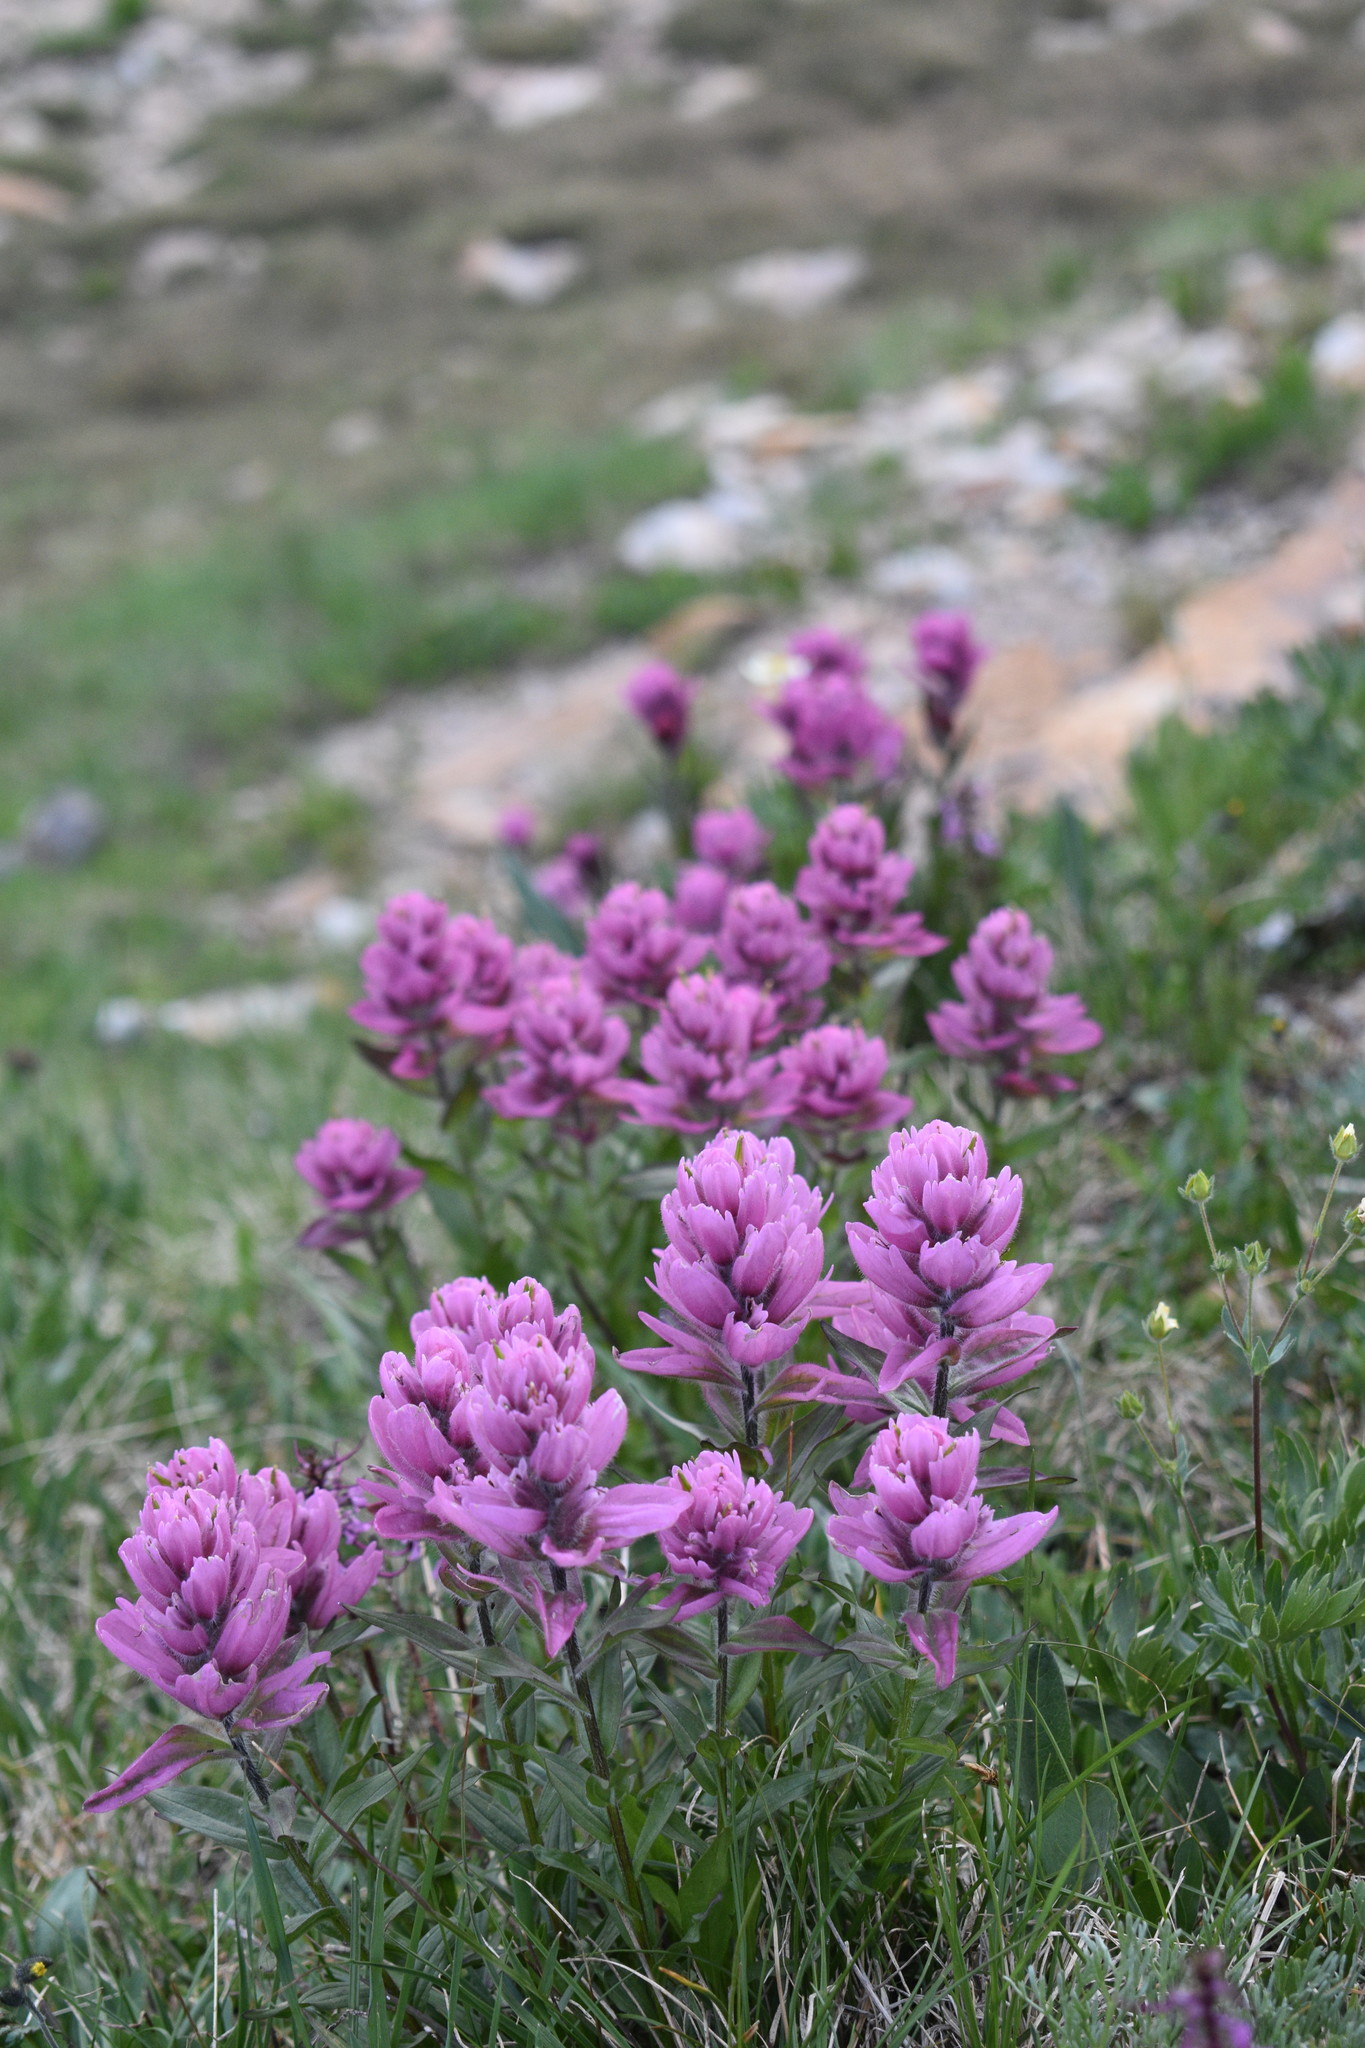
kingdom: Plantae
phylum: Tracheophyta
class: Magnoliopsida
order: Lamiales
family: Orobanchaceae
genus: Castilleja
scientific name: Castilleja rhexifolia
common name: Rocky mountain paintbrush
